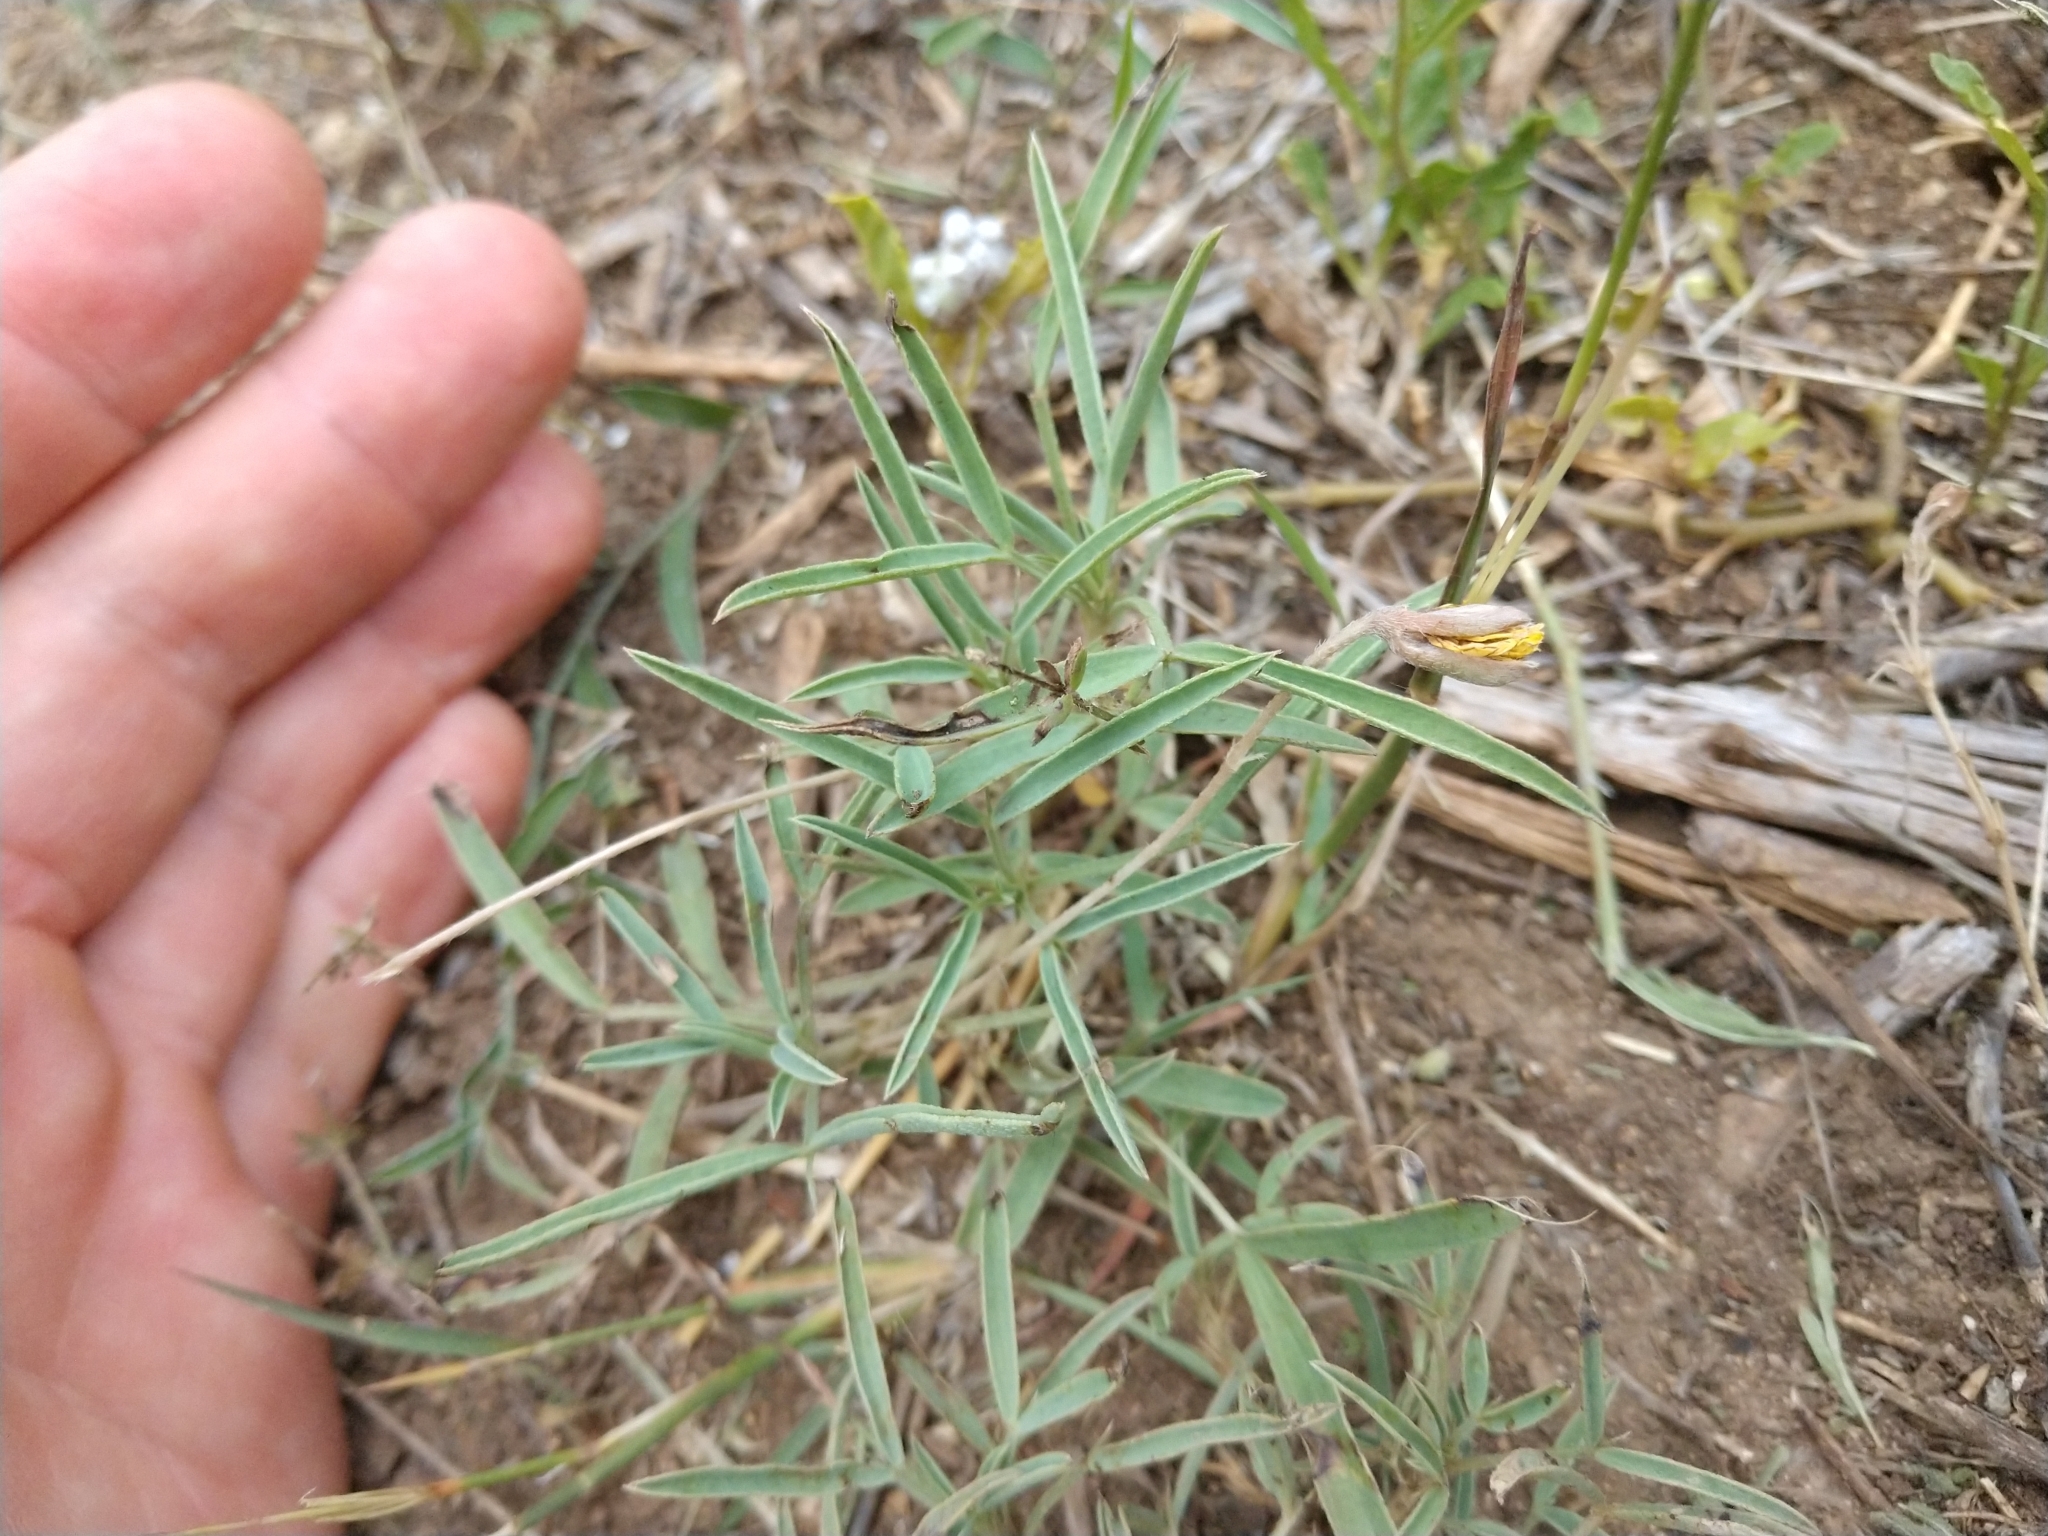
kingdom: Plantae
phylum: Tracheophyta
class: Magnoliopsida
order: Fabales
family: Fabaceae
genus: Senna
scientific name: Senna pumilio
